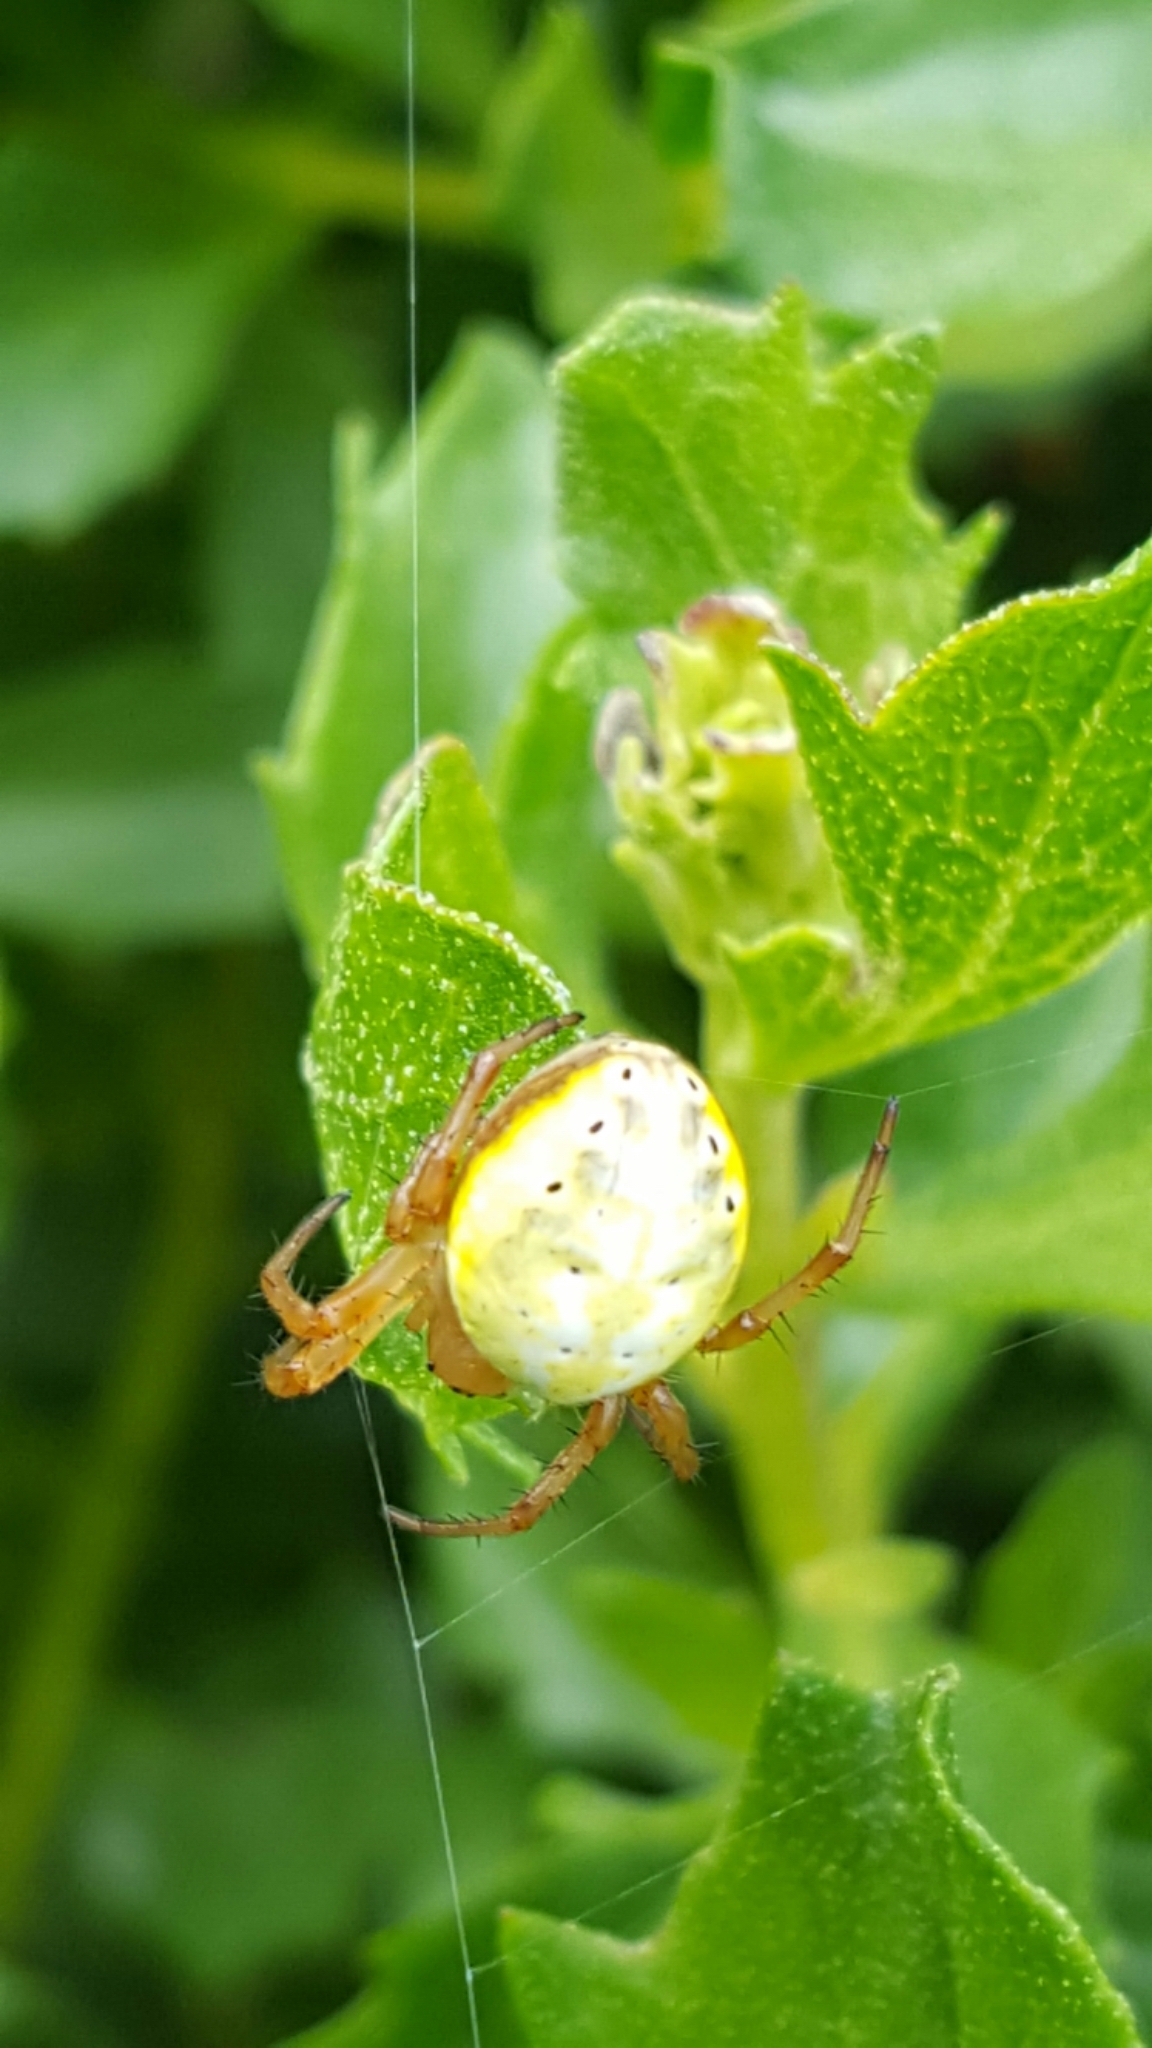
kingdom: Animalia
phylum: Arthropoda
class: Arachnida
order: Araneae
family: Araneidae
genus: Araniella
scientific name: Araniella displicata
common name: Sixspotted orb weaver
